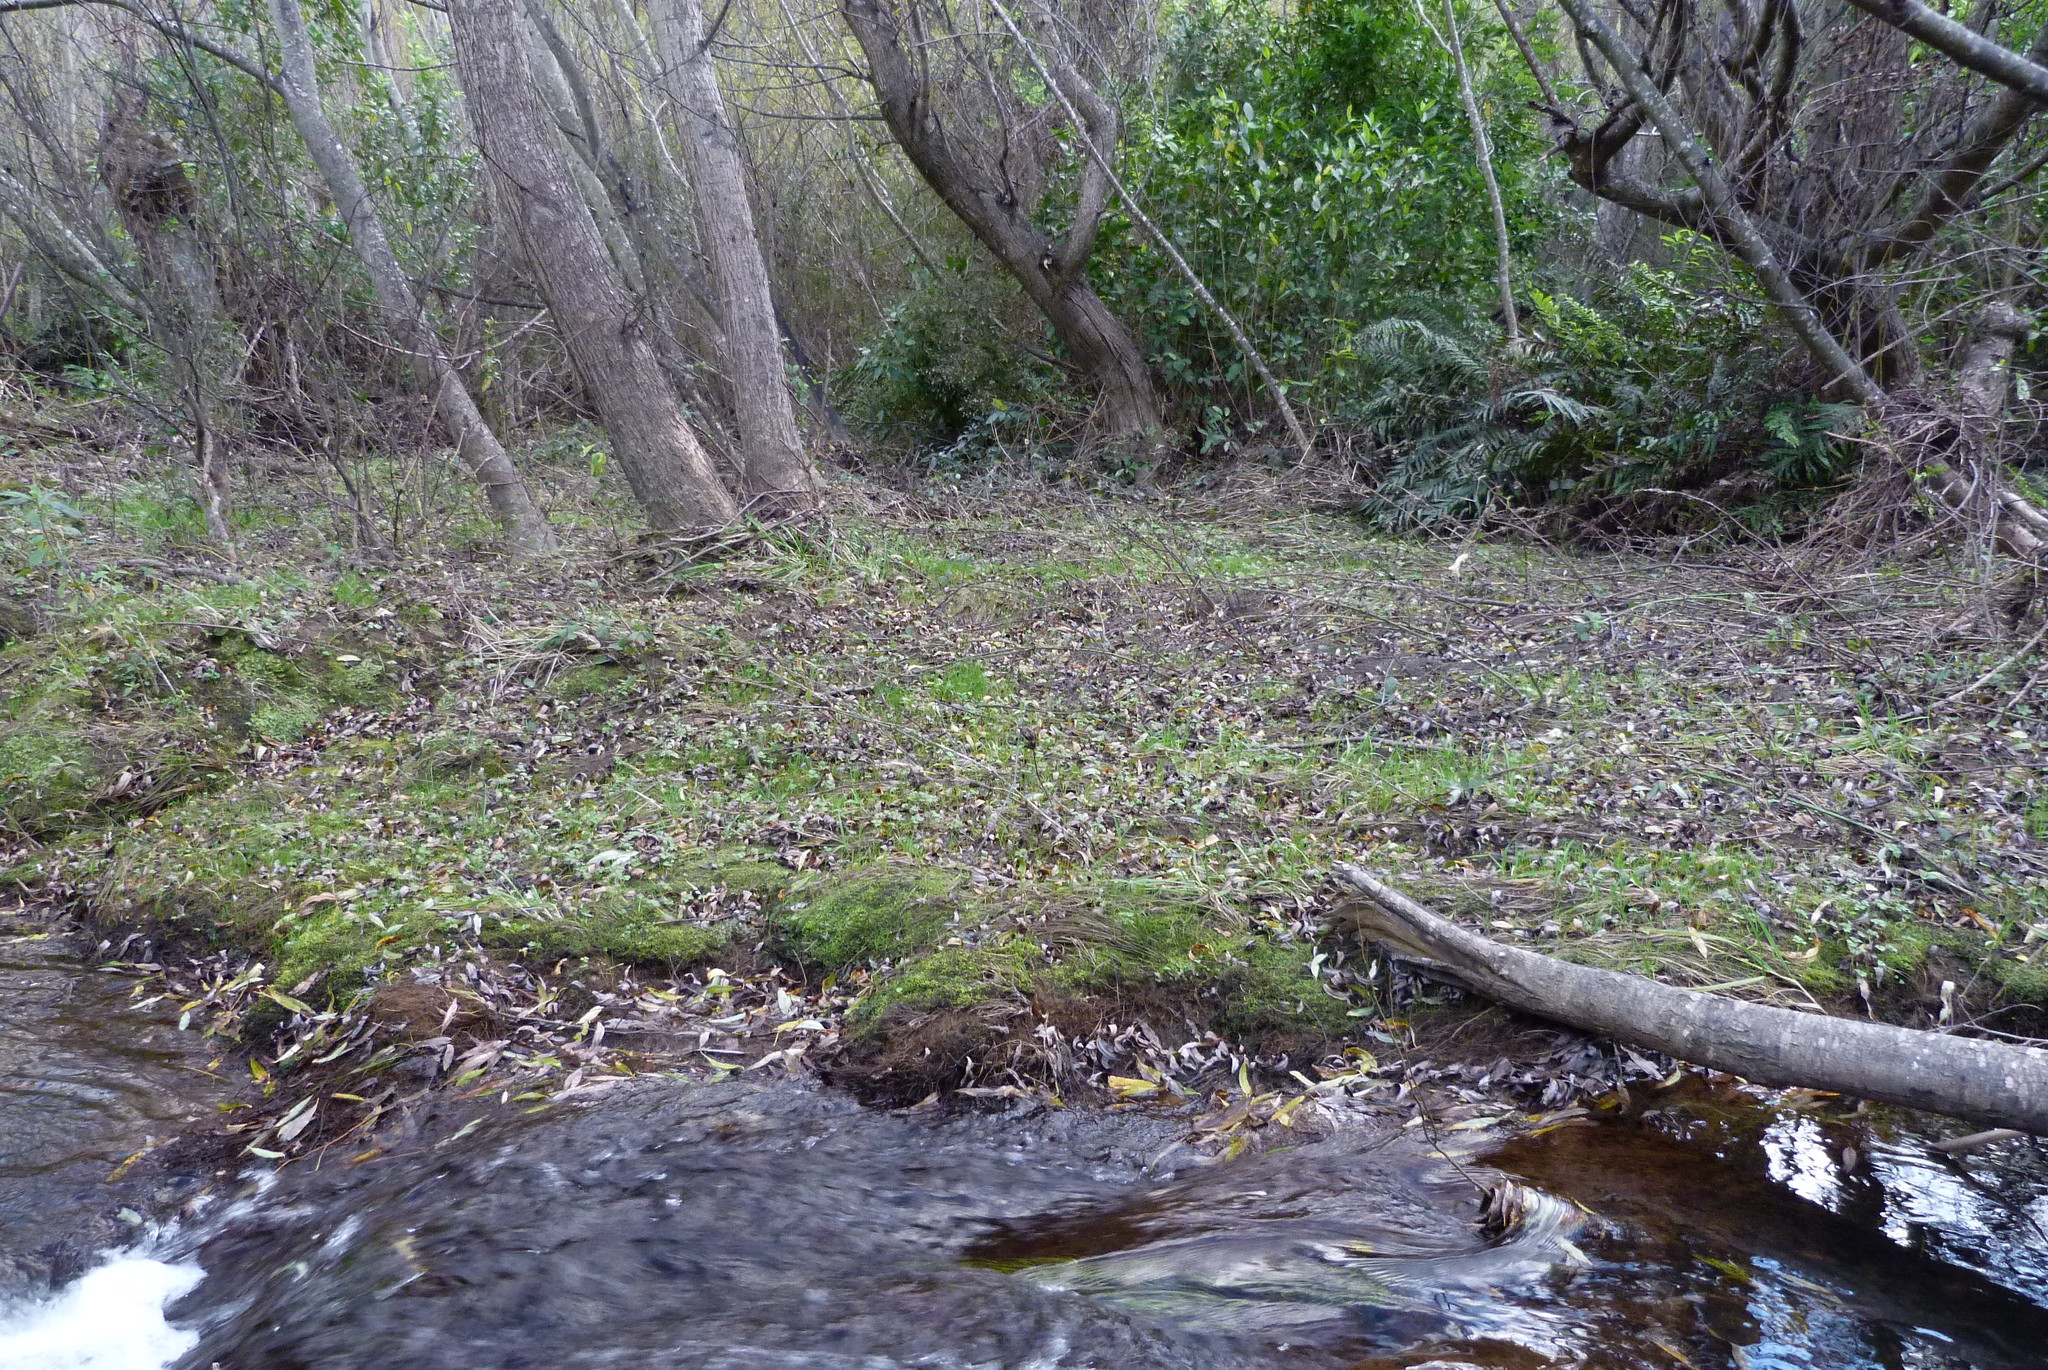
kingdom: Plantae
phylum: Tracheophyta
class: Magnoliopsida
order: Malpighiales
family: Salicaceae
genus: Salix
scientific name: Salix fragilis
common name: Crack willow
